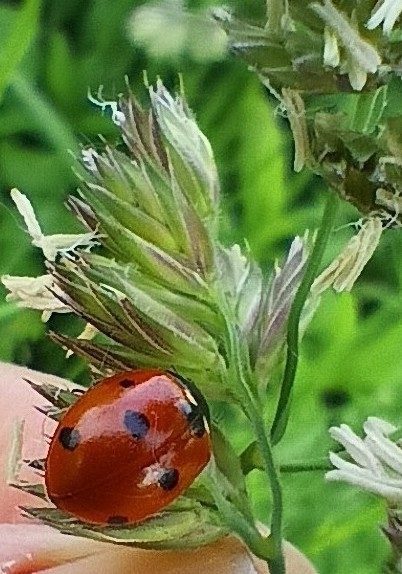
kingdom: Animalia
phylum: Arthropoda
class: Insecta
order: Coleoptera
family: Coccinellidae
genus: Coccinella
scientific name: Coccinella septempunctata
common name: Sevenspotted lady beetle
